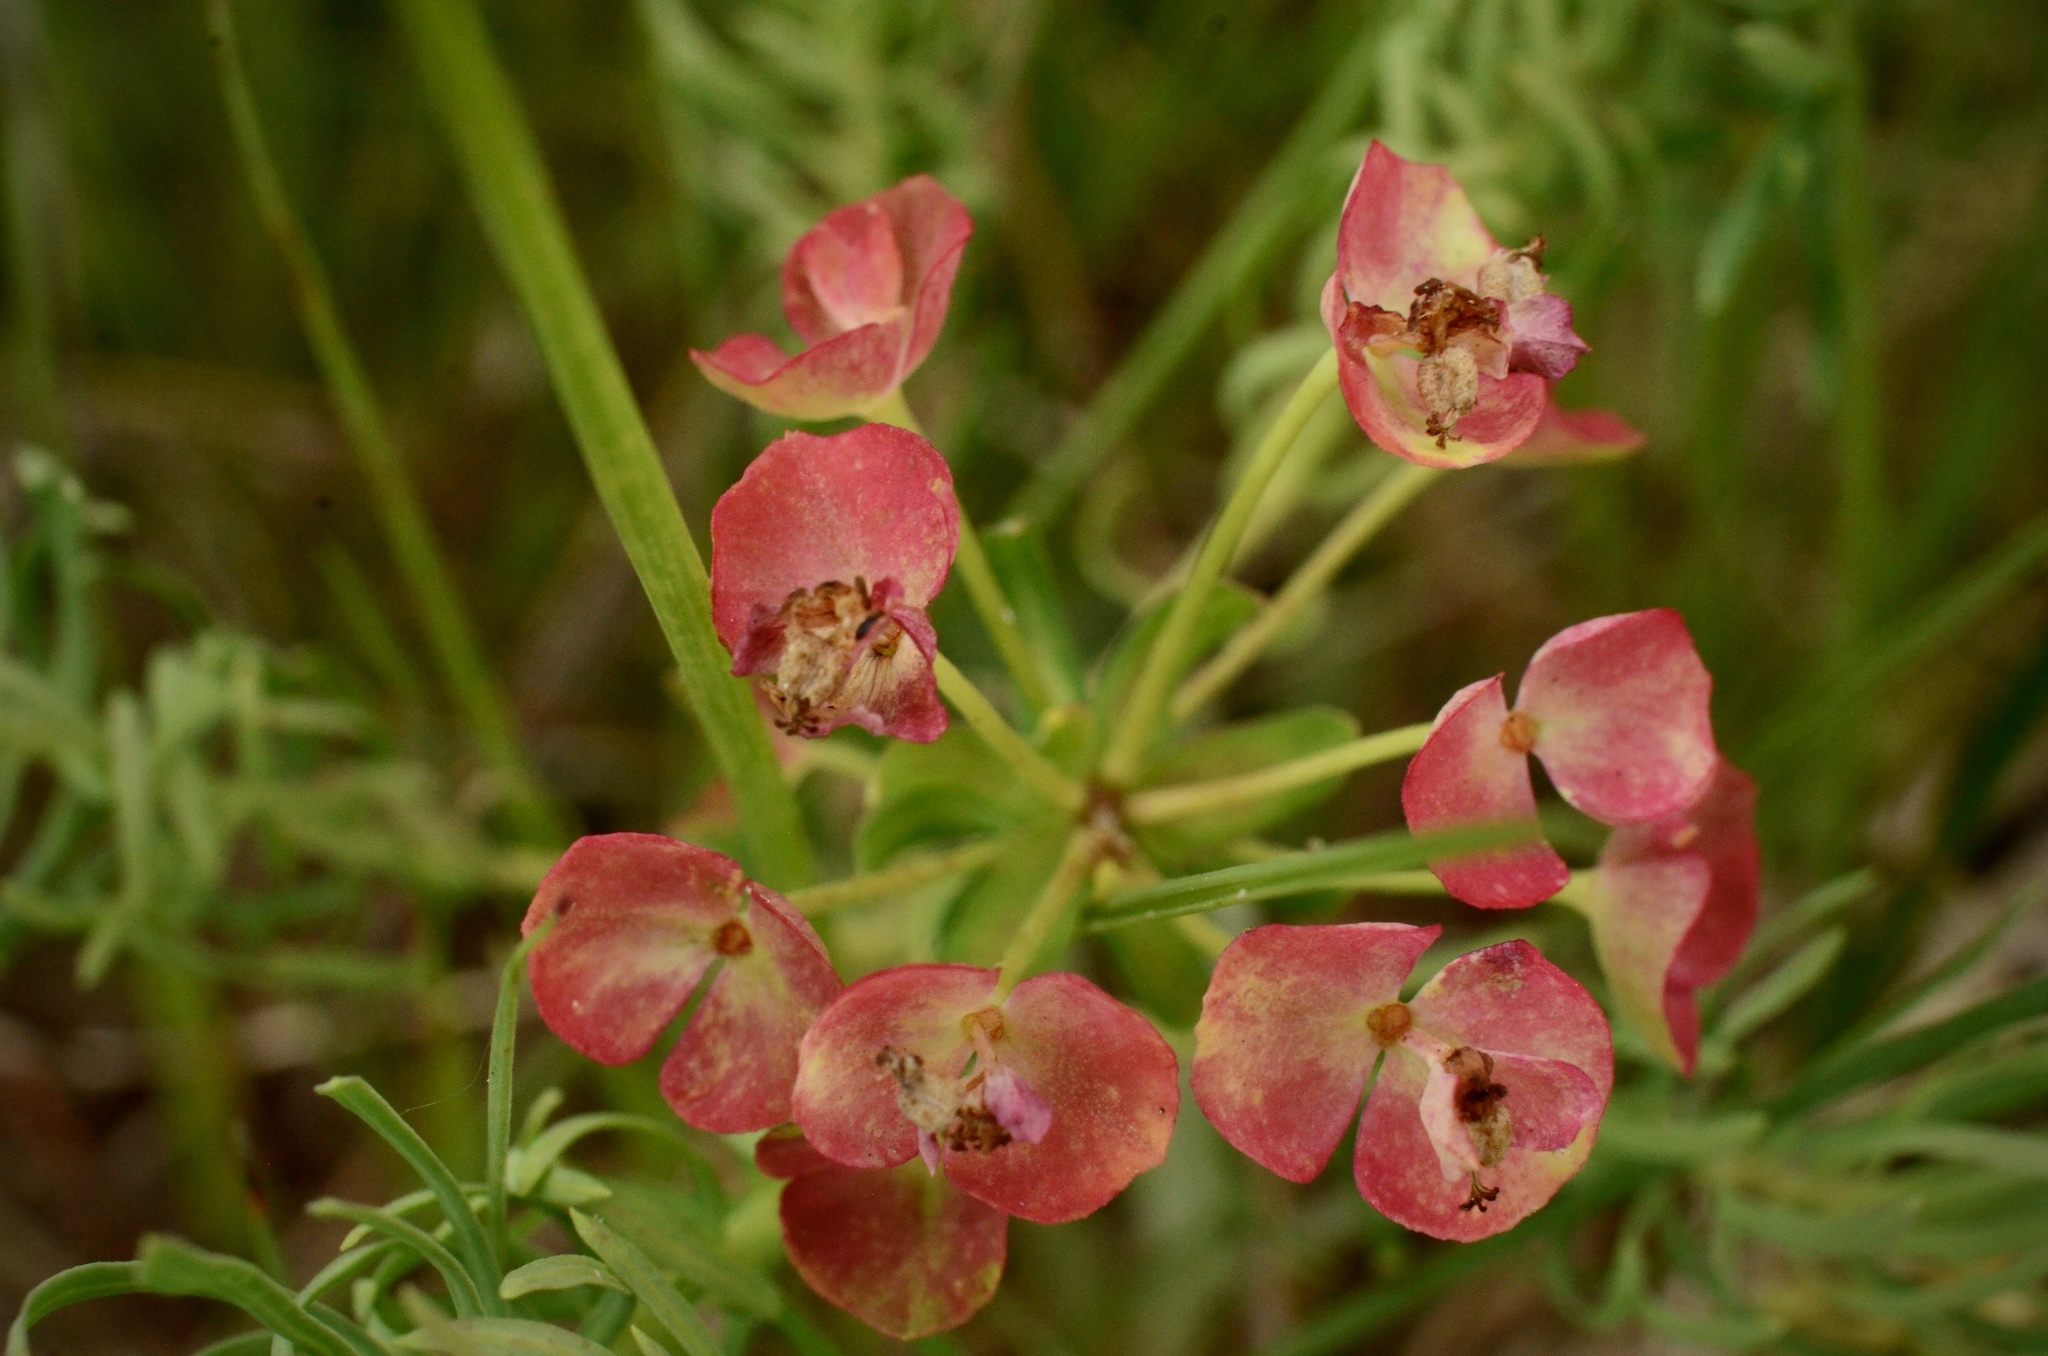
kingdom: Plantae
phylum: Tracheophyta
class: Magnoliopsida
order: Malpighiales
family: Euphorbiaceae
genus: Euphorbia
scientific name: Euphorbia cyparissias
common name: Cypress spurge
